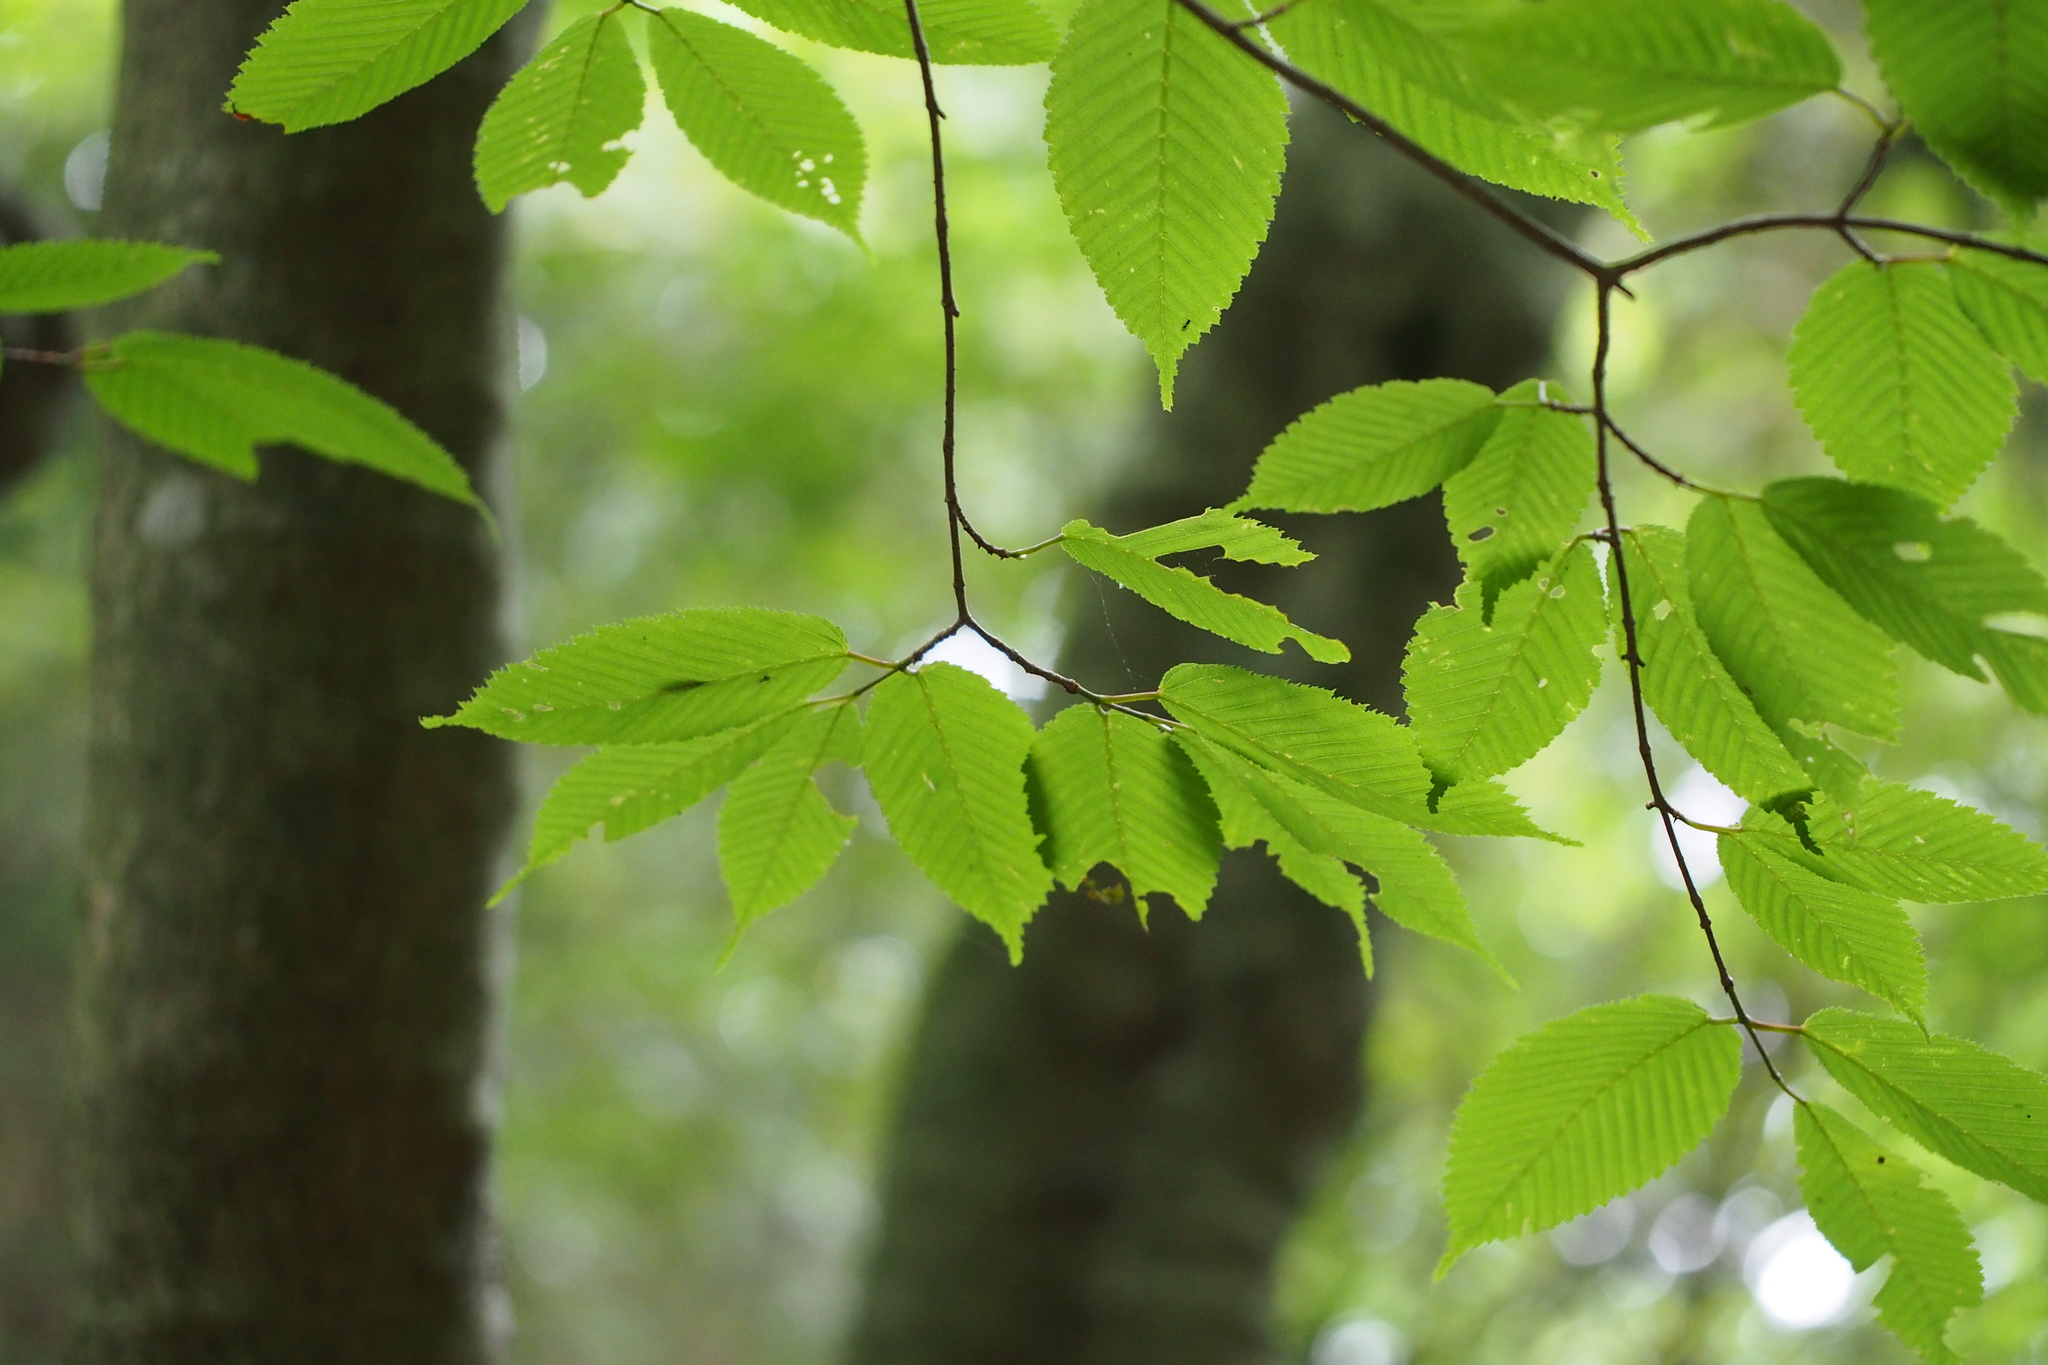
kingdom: Plantae
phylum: Tracheophyta
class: Magnoliopsida
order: Sapindales
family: Sapindaceae
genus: Acer
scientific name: Acer carpinifolium
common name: Hornbeam maple
